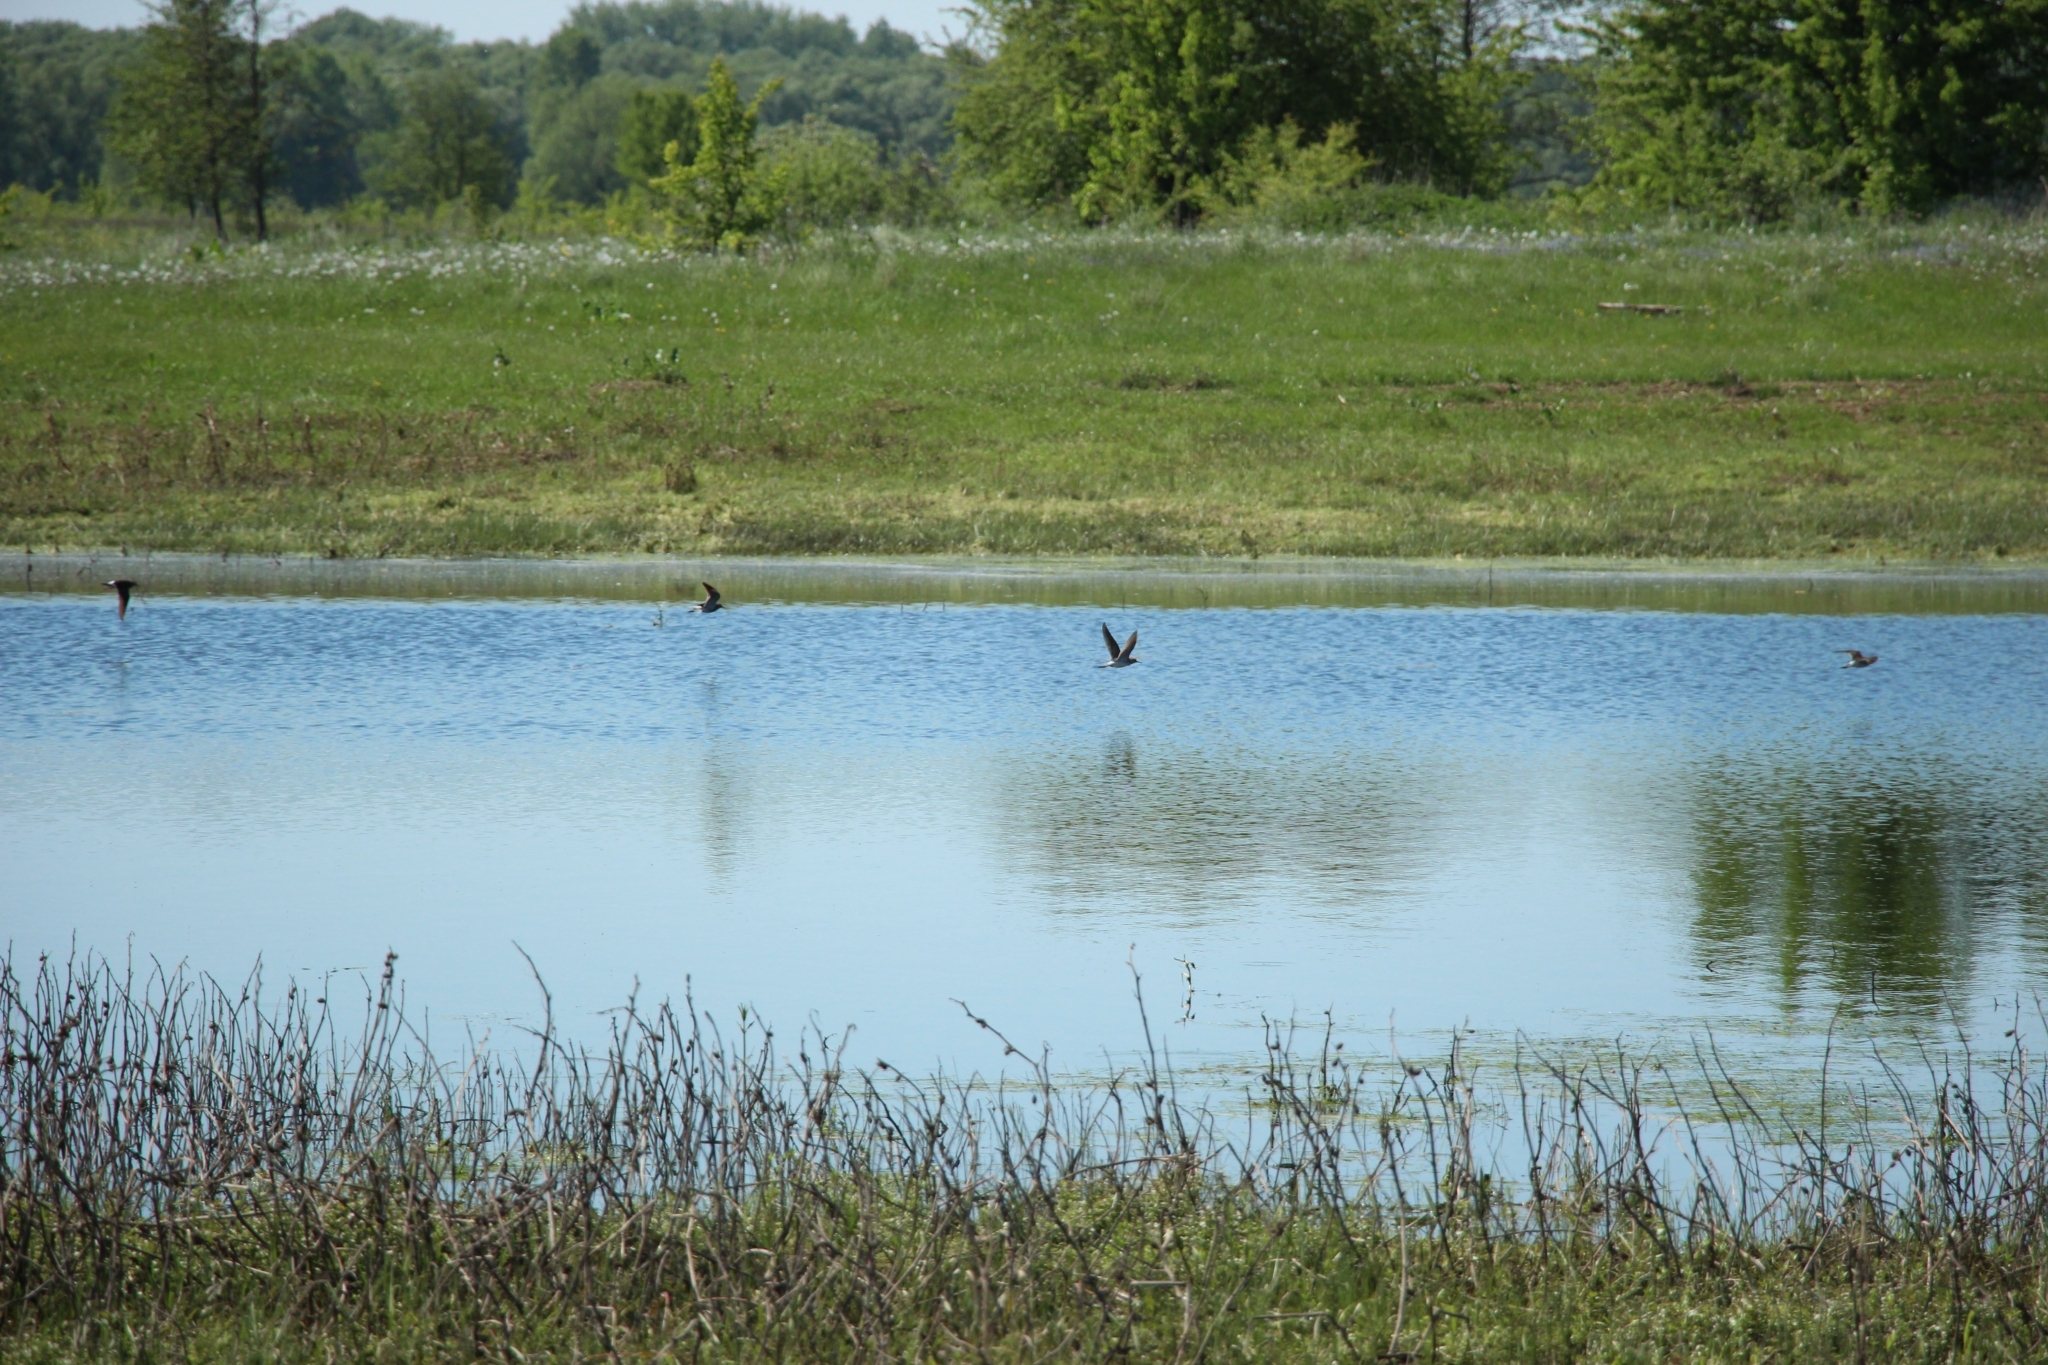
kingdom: Animalia
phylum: Chordata
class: Aves
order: Charadriiformes
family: Scolopacidae
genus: Tringa
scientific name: Tringa glareola
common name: Wood sandpiper
